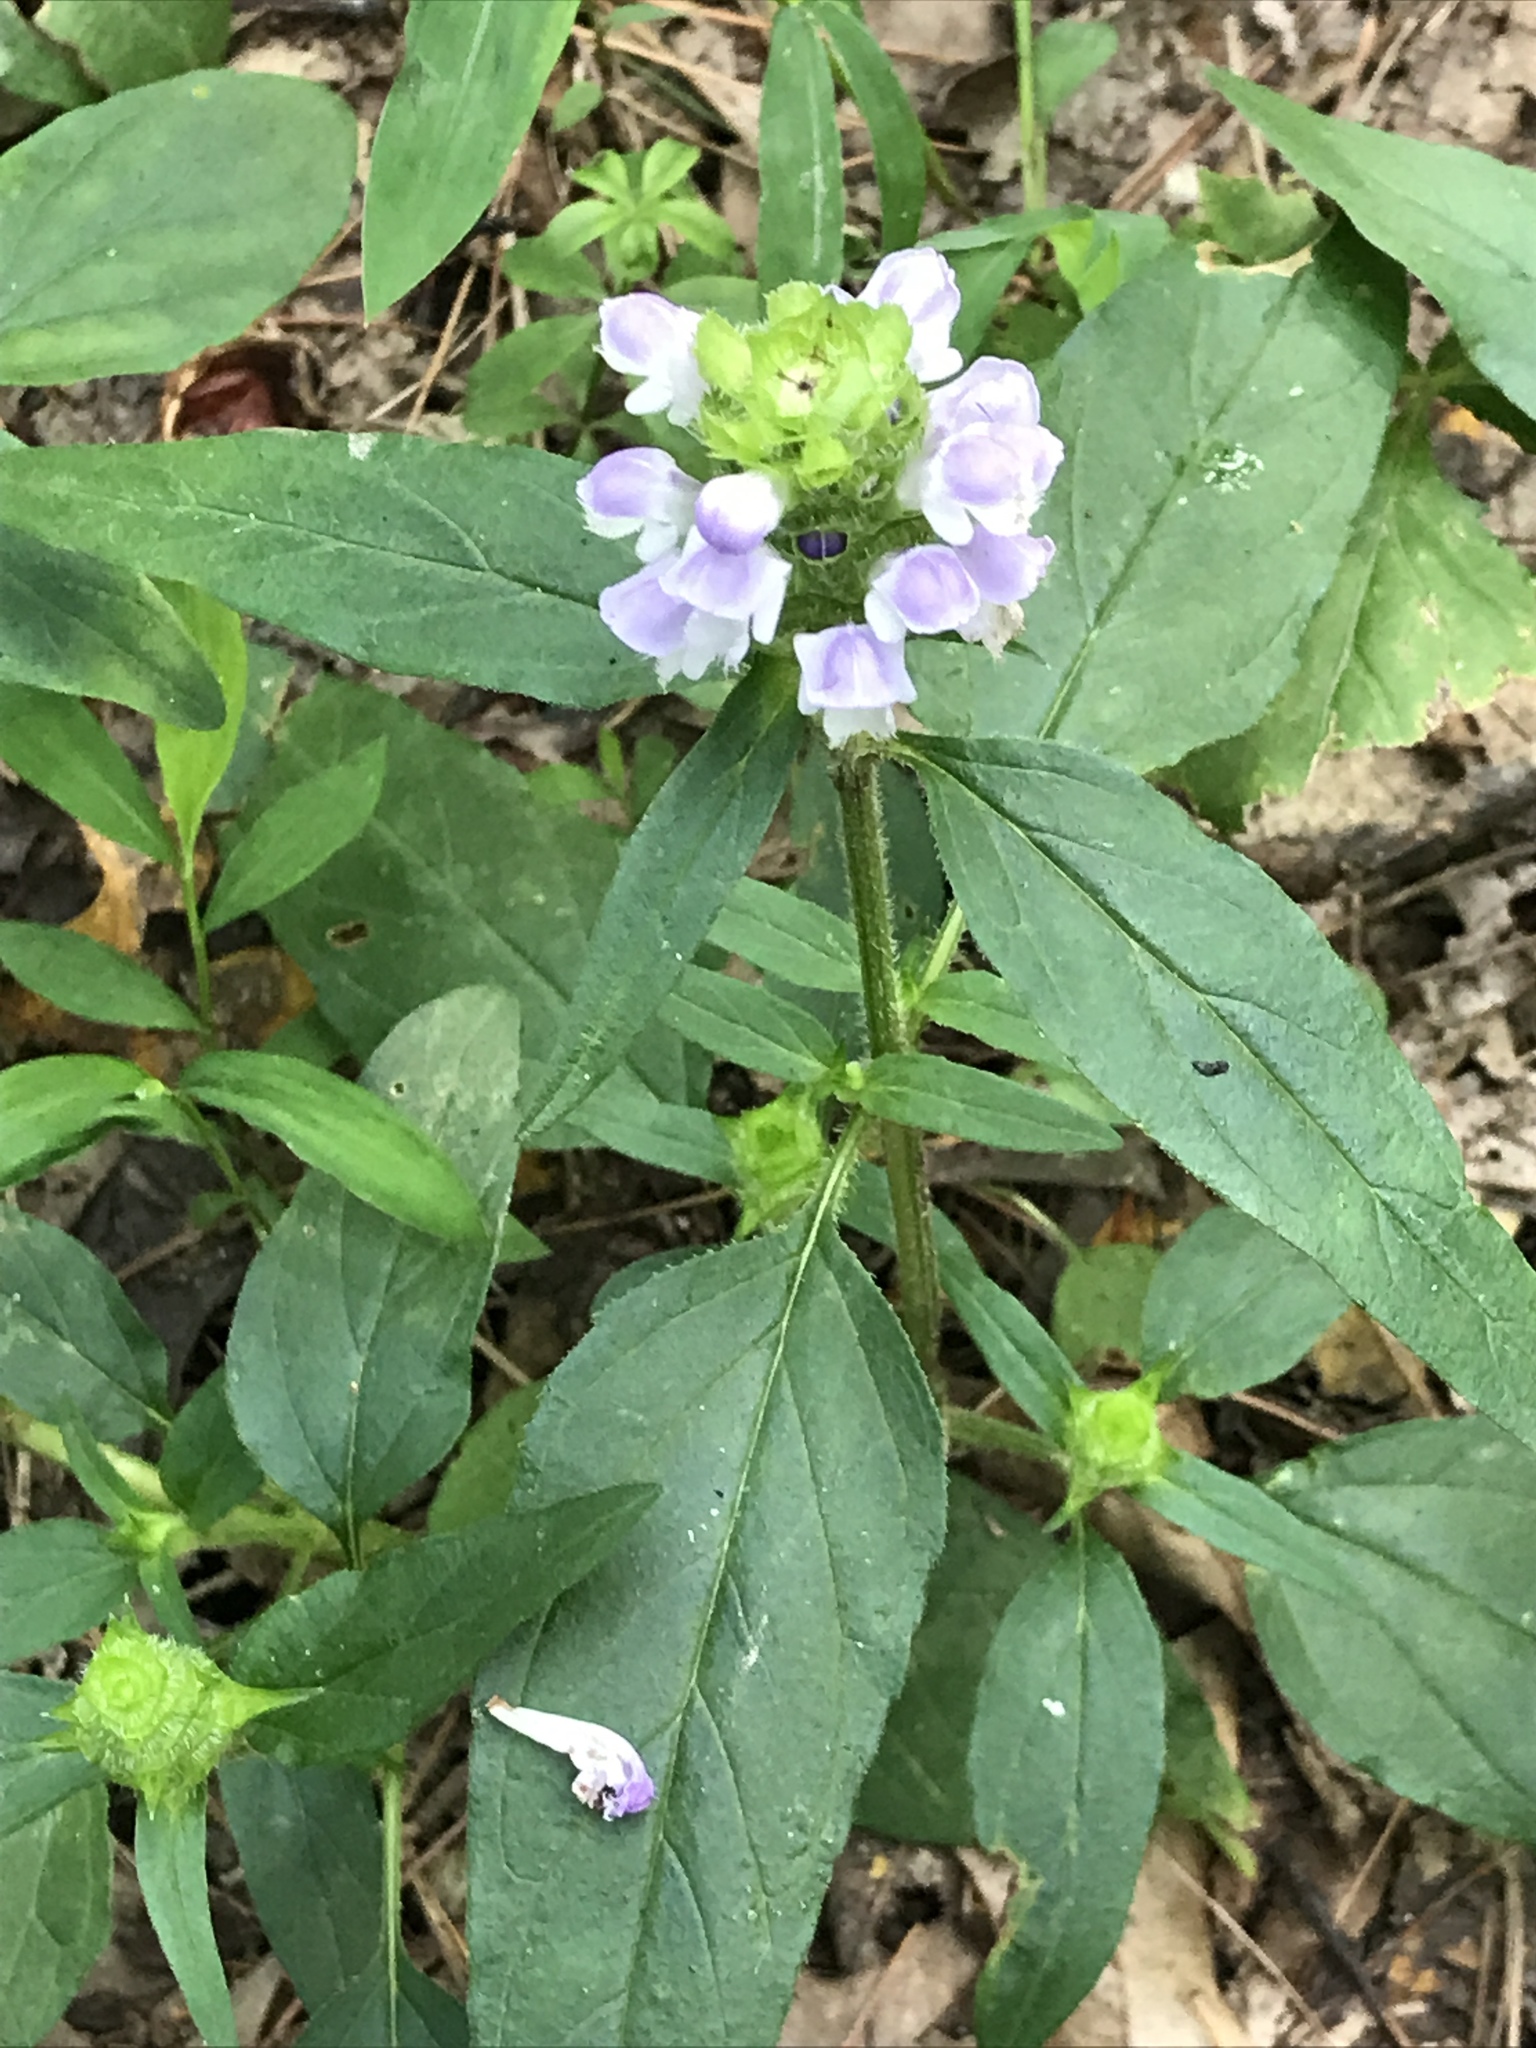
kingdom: Plantae
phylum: Tracheophyta
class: Magnoliopsida
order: Lamiales
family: Lamiaceae
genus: Prunella
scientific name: Prunella vulgaris
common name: Heal-all
